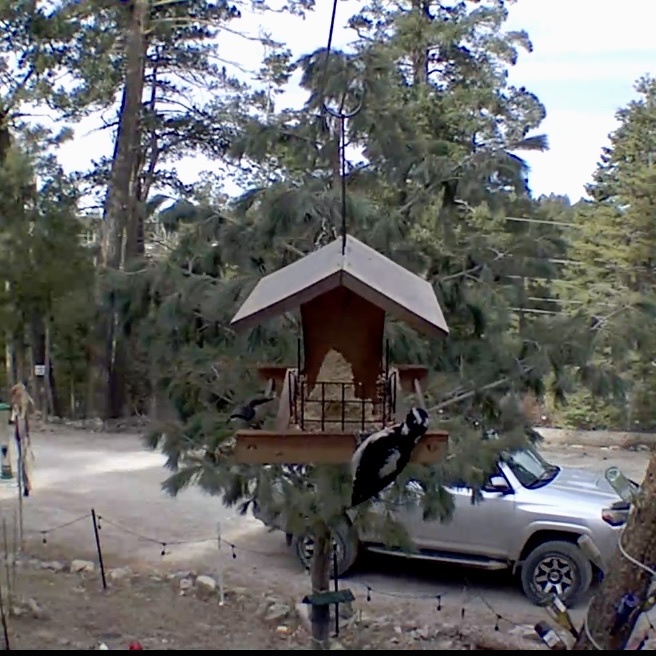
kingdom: Animalia
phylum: Chordata
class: Aves
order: Piciformes
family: Picidae
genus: Leuconotopicus
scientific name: Leuconotopicus villosus
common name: Hairy woodpecker
